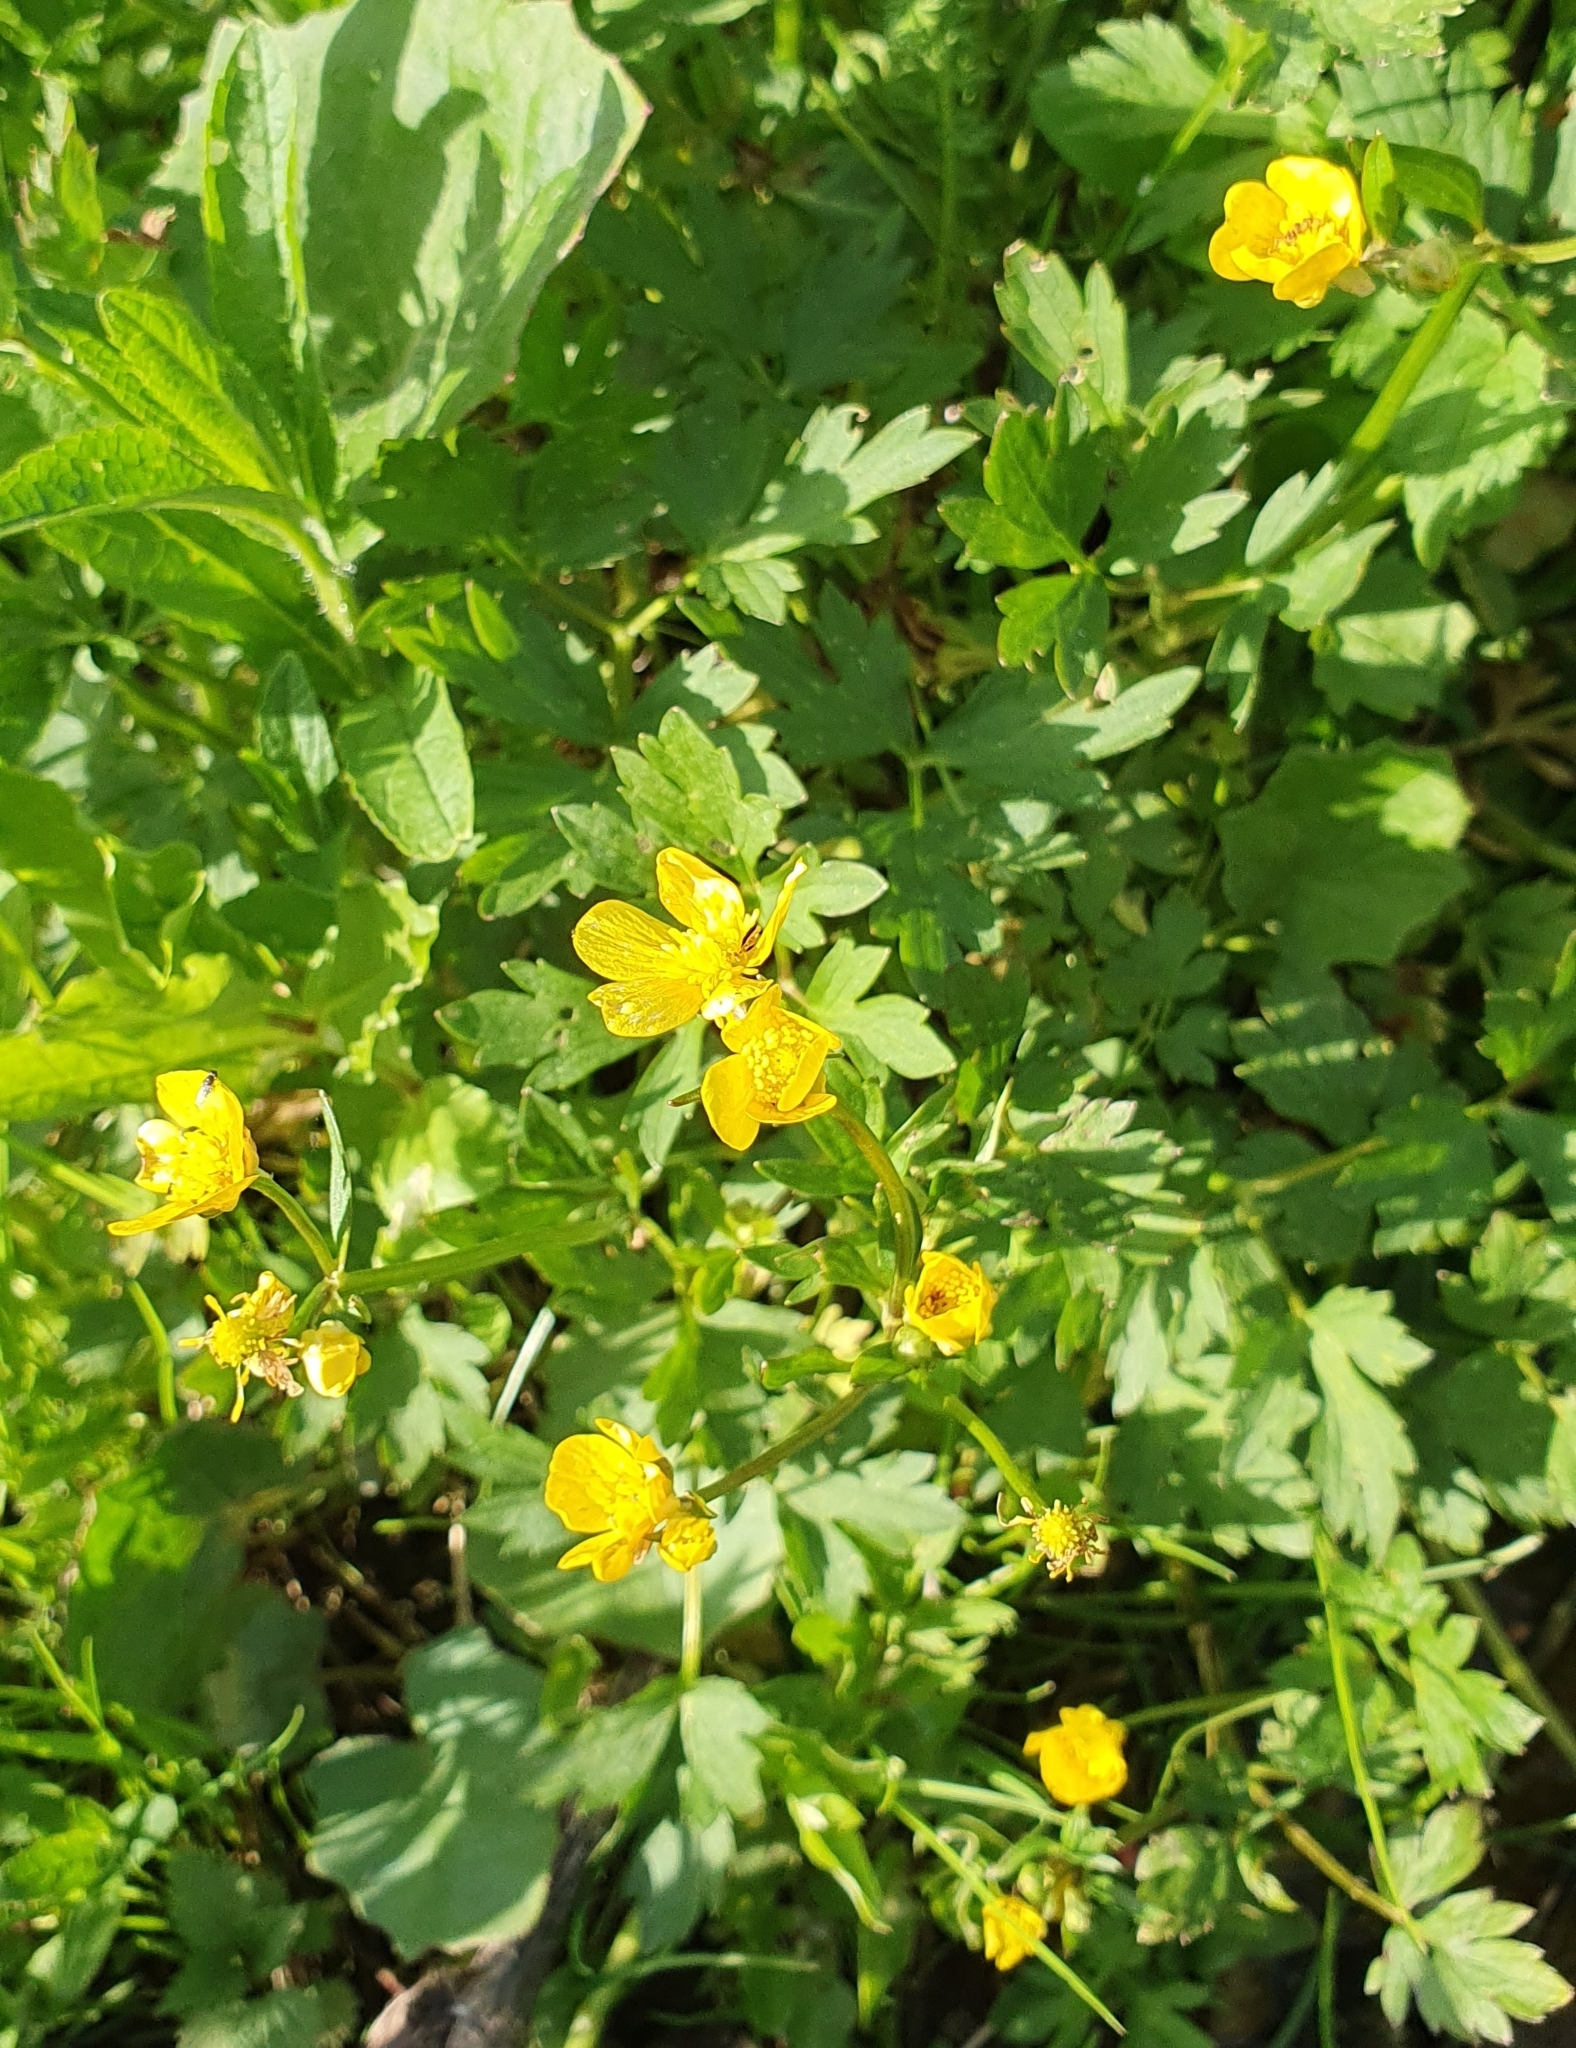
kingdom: Plantae
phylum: Tracheophyta
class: Magnoliopsida
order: Ranunculales
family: Ranunculaceae
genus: Ranunculus
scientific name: Ranunculus repens
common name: Creeping buttercup
